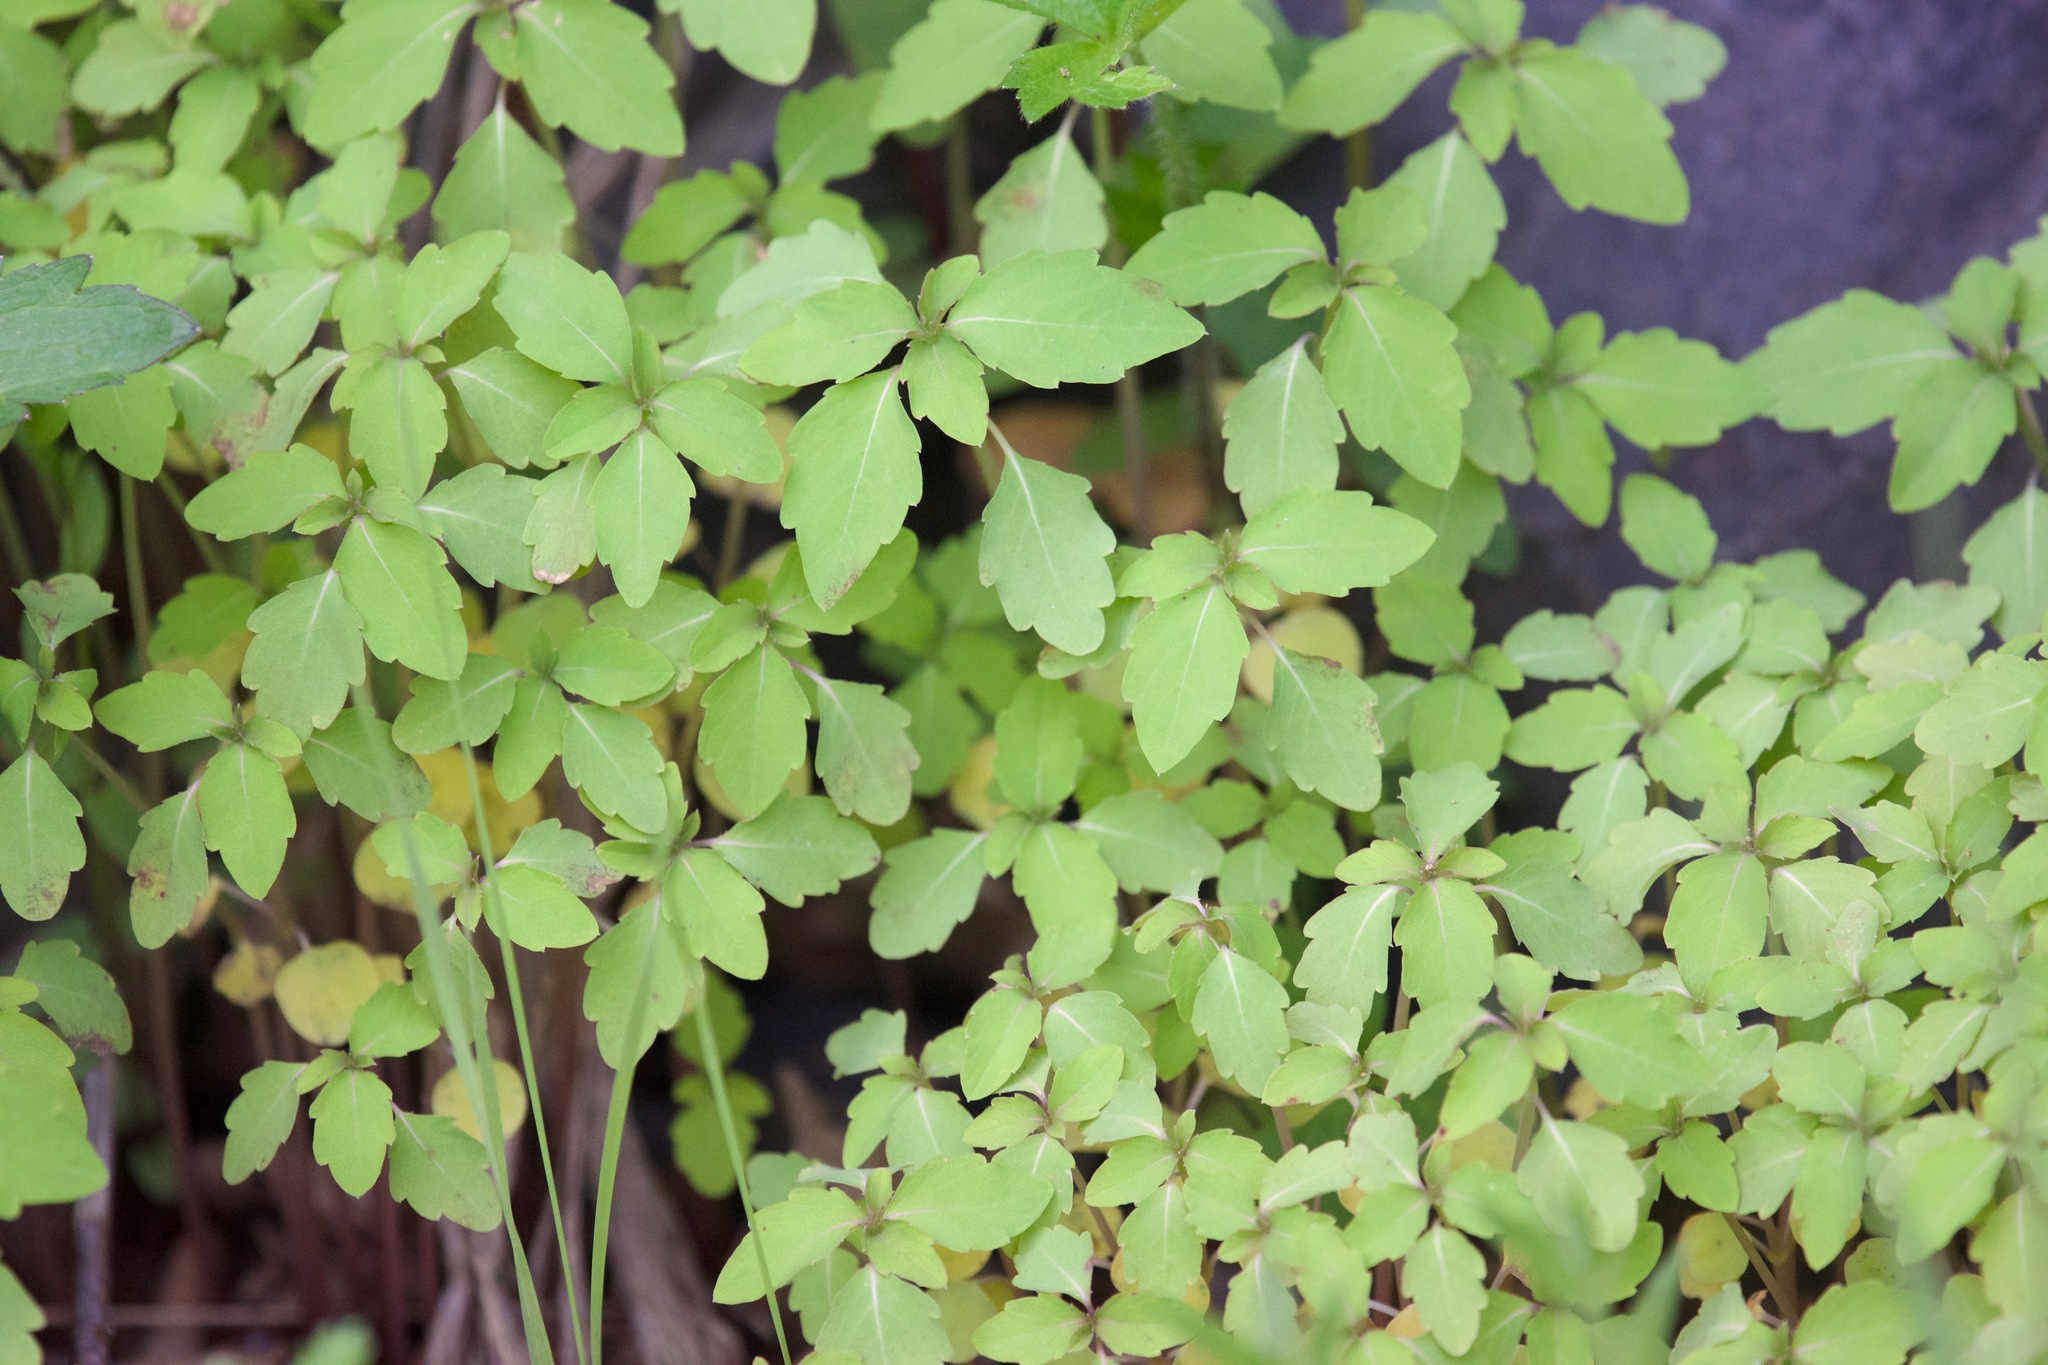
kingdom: Plantae
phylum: Tracheophyta
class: Magnoliopsida
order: Ericales
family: Balsaminaceae
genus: Impatiens
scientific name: Impatiens capensis
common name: Orange balsam
